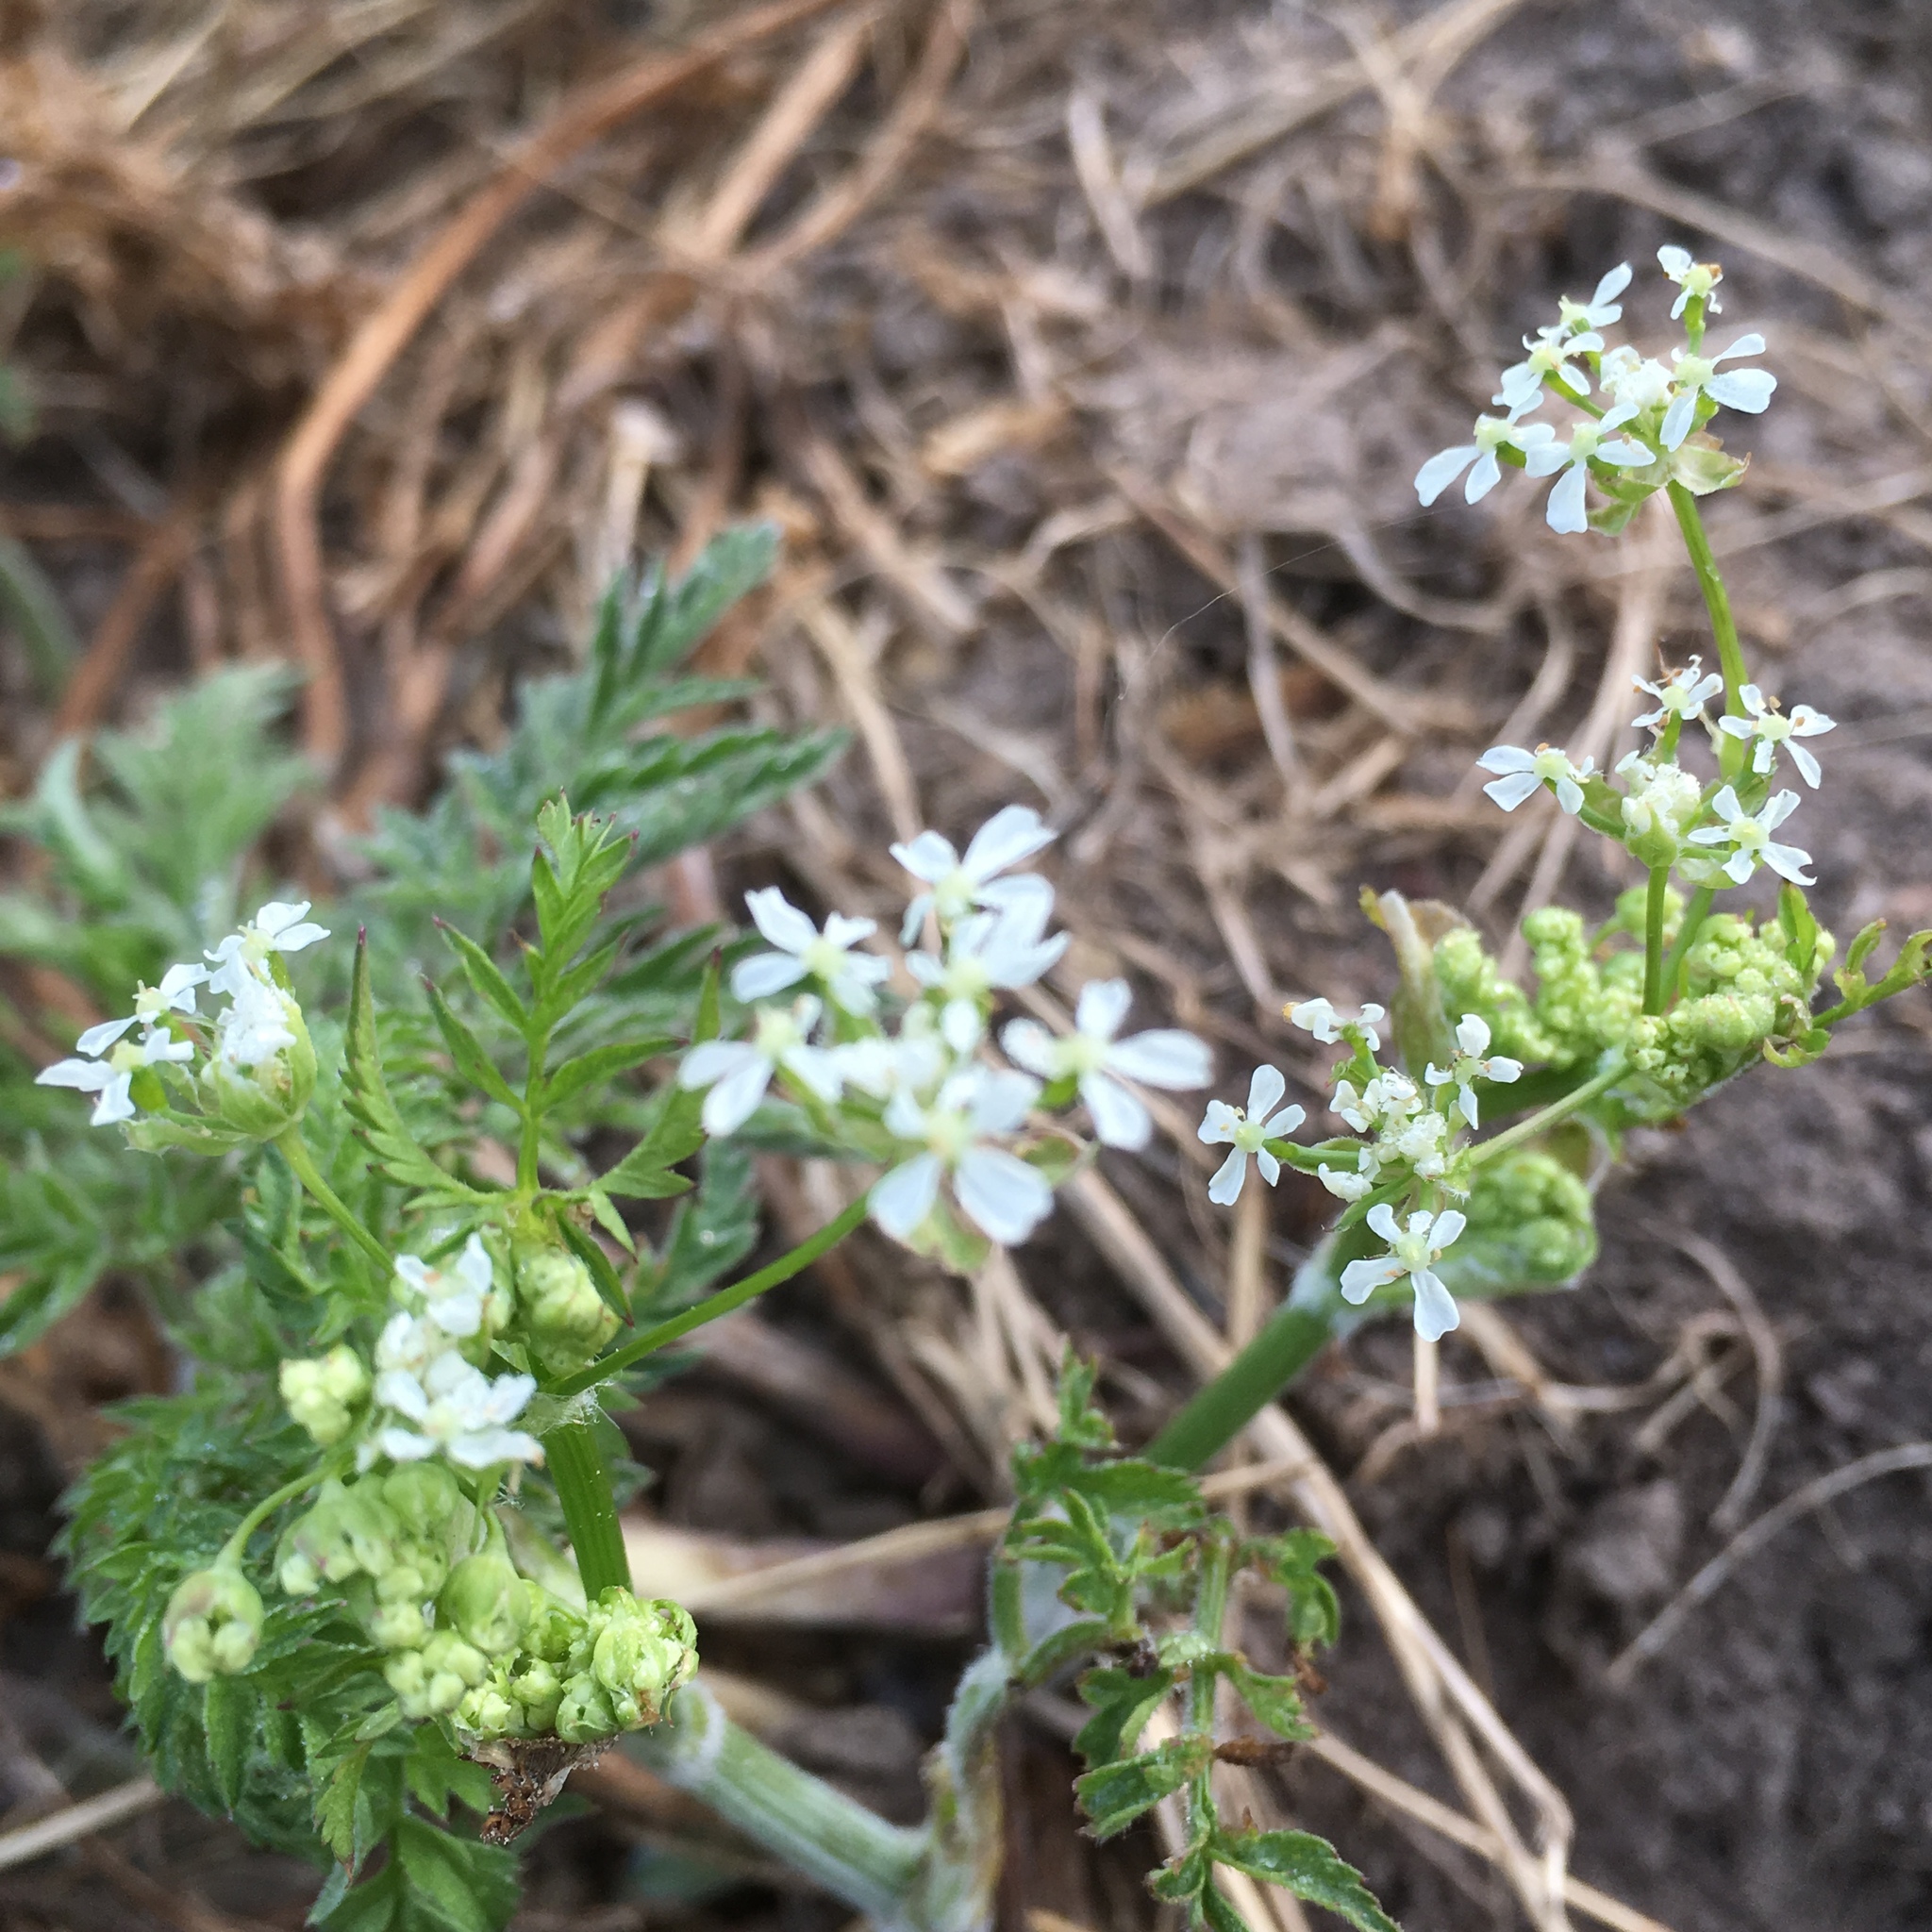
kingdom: Plantae
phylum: Tracheophyta
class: Magnoliopsida
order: Apiales
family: Apiaceae
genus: Anthriscus
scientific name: Anthriscus sylvestris
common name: Cow parsley
